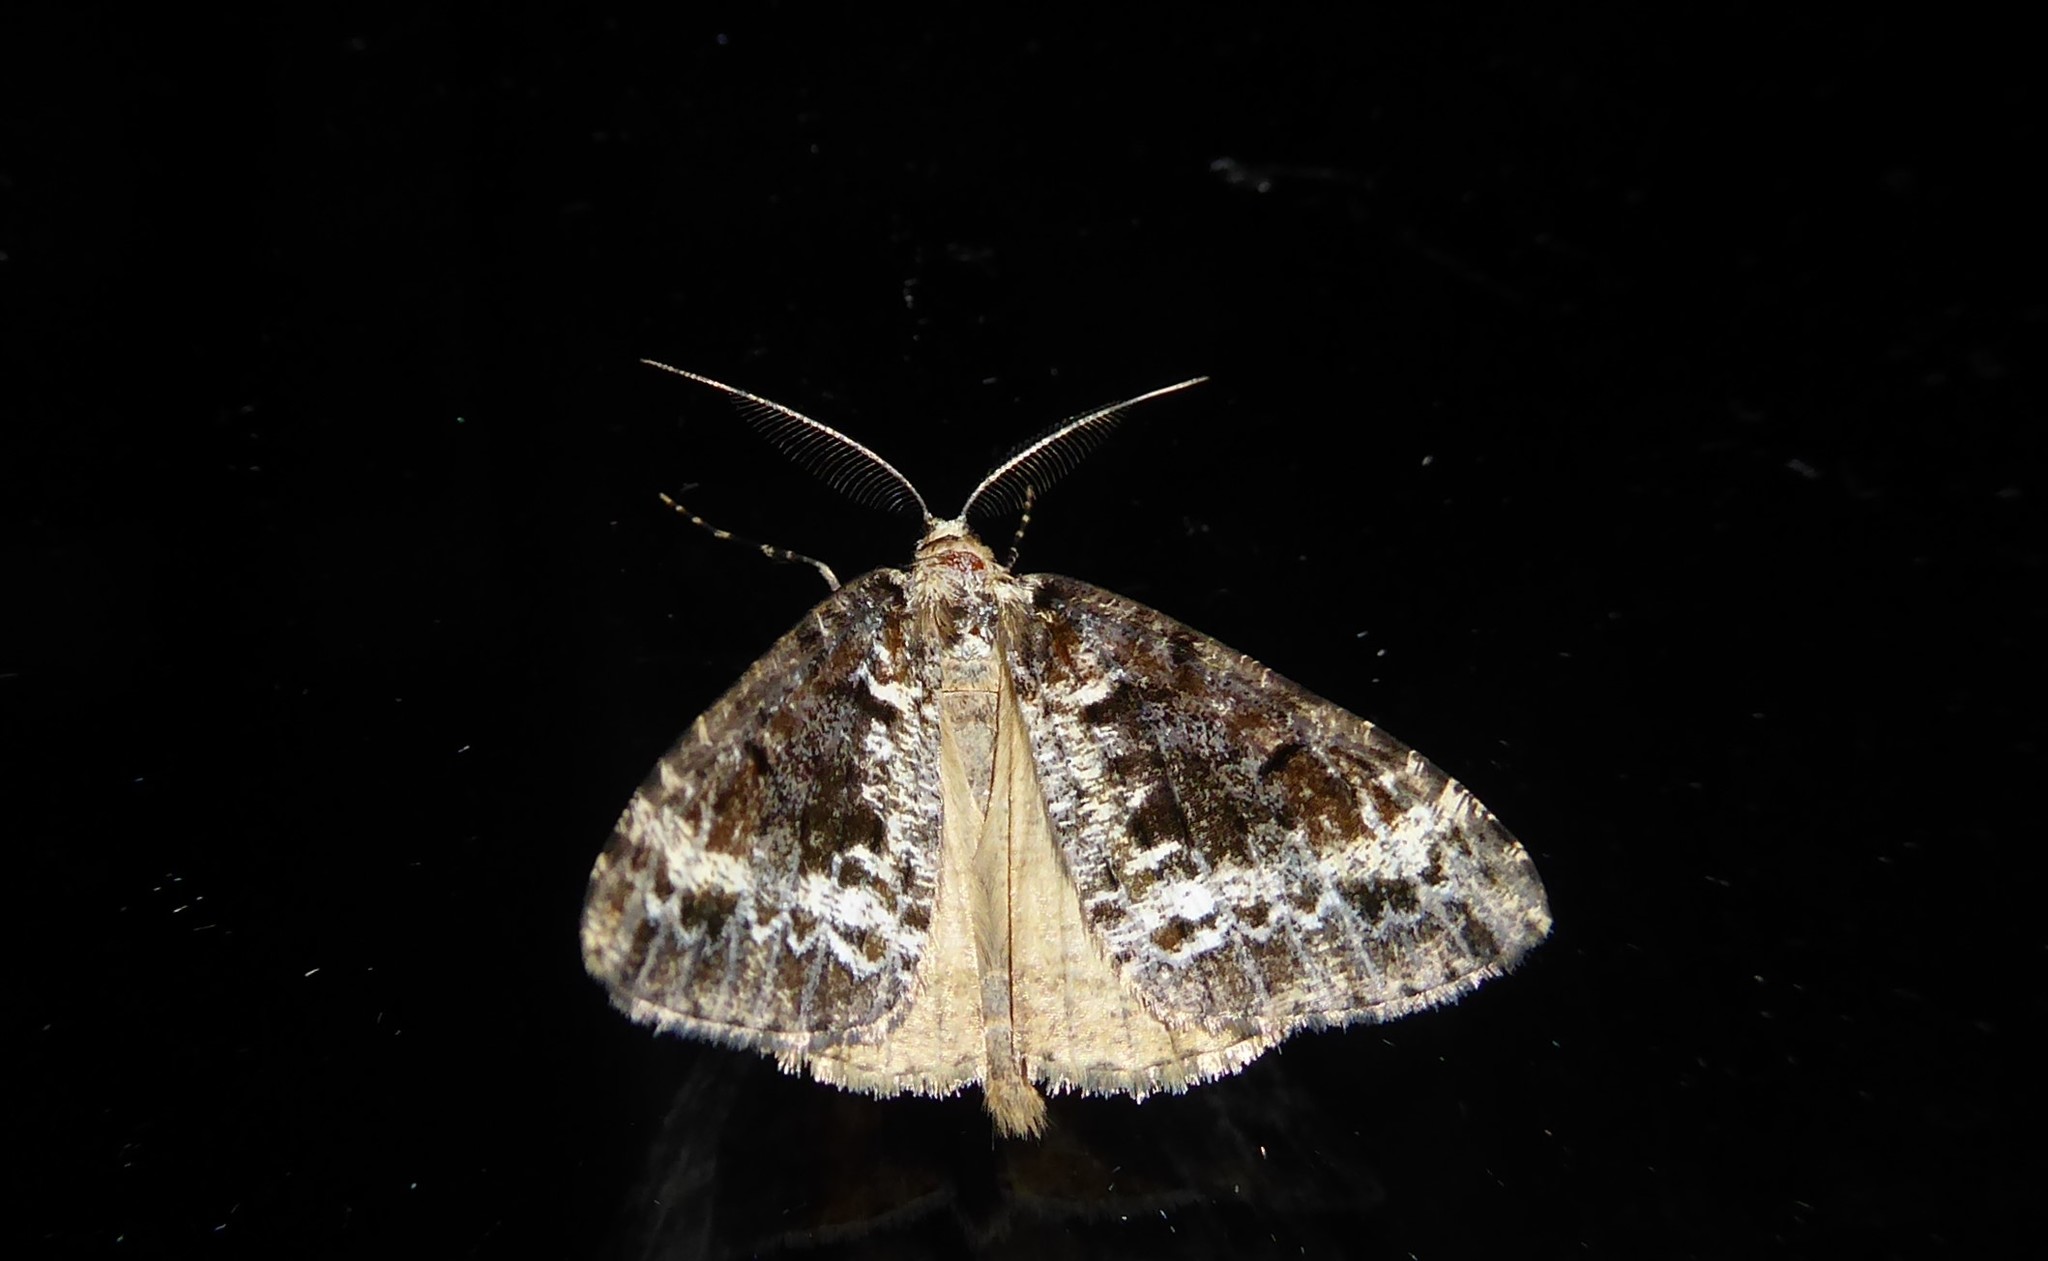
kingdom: Animalia
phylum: Arthropoda
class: Insecta
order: Lepidoptera
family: Geometridae
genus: Pseudocoremia
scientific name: Pseudocoremia leucelaea
